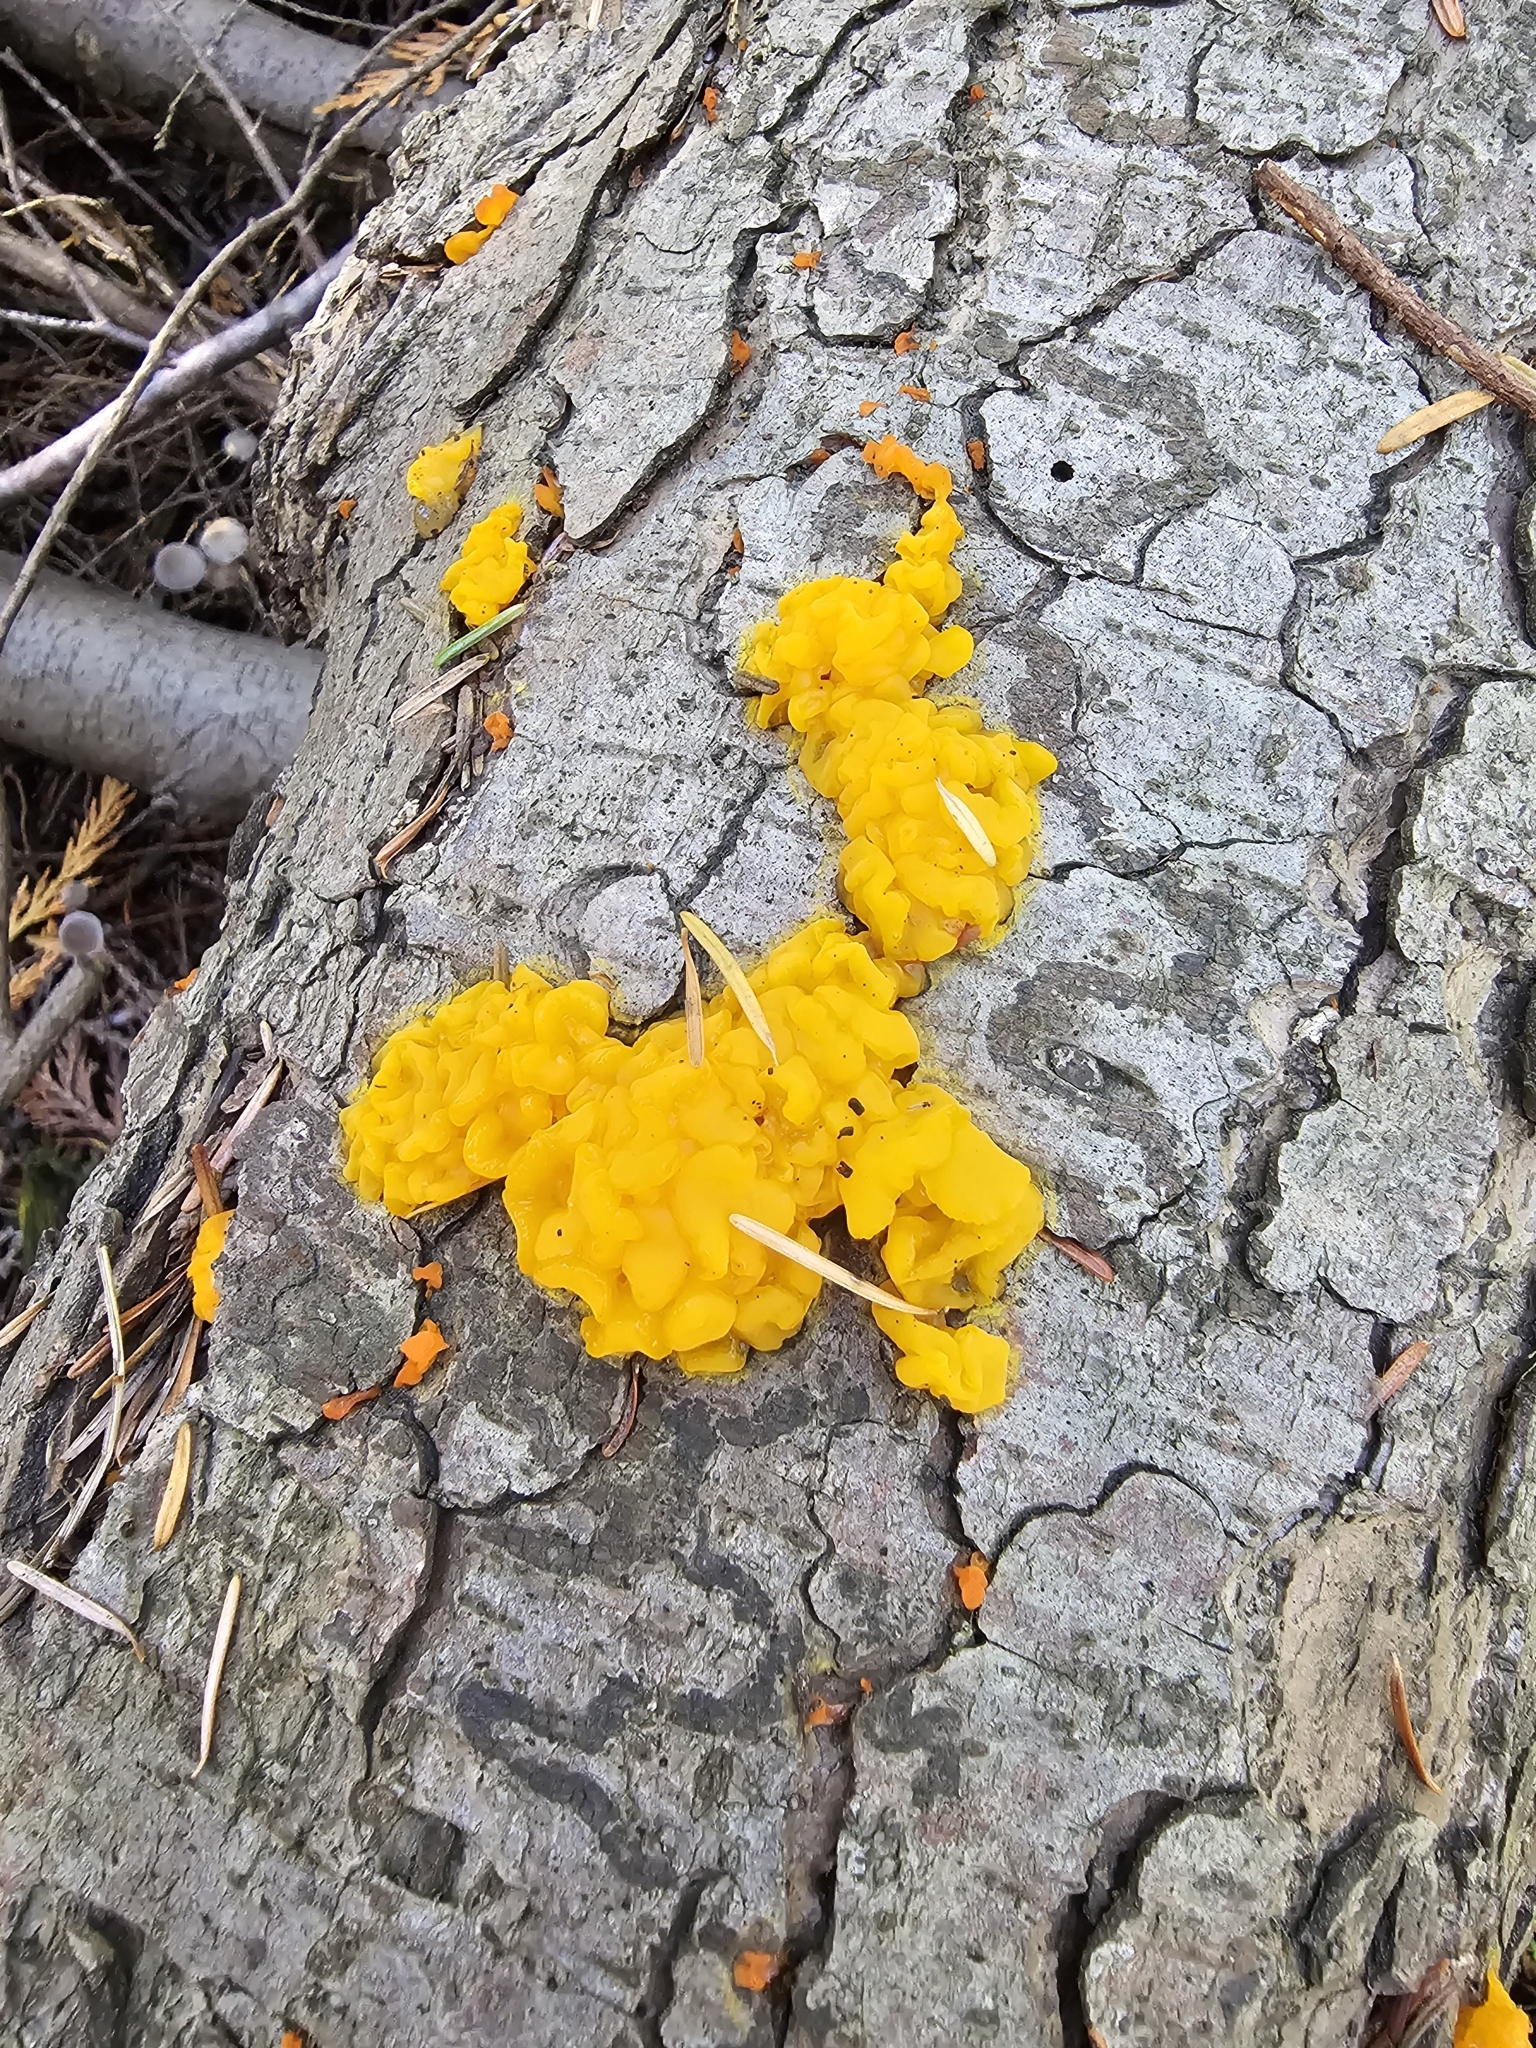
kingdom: Fungi
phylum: Basidiomycota
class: Dacrymycetes
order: Dacrymycetales
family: Dacrymycetaceae
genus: Dacrymyces
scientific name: Dacrymyces chrysospermus
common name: Orange jelly spot
